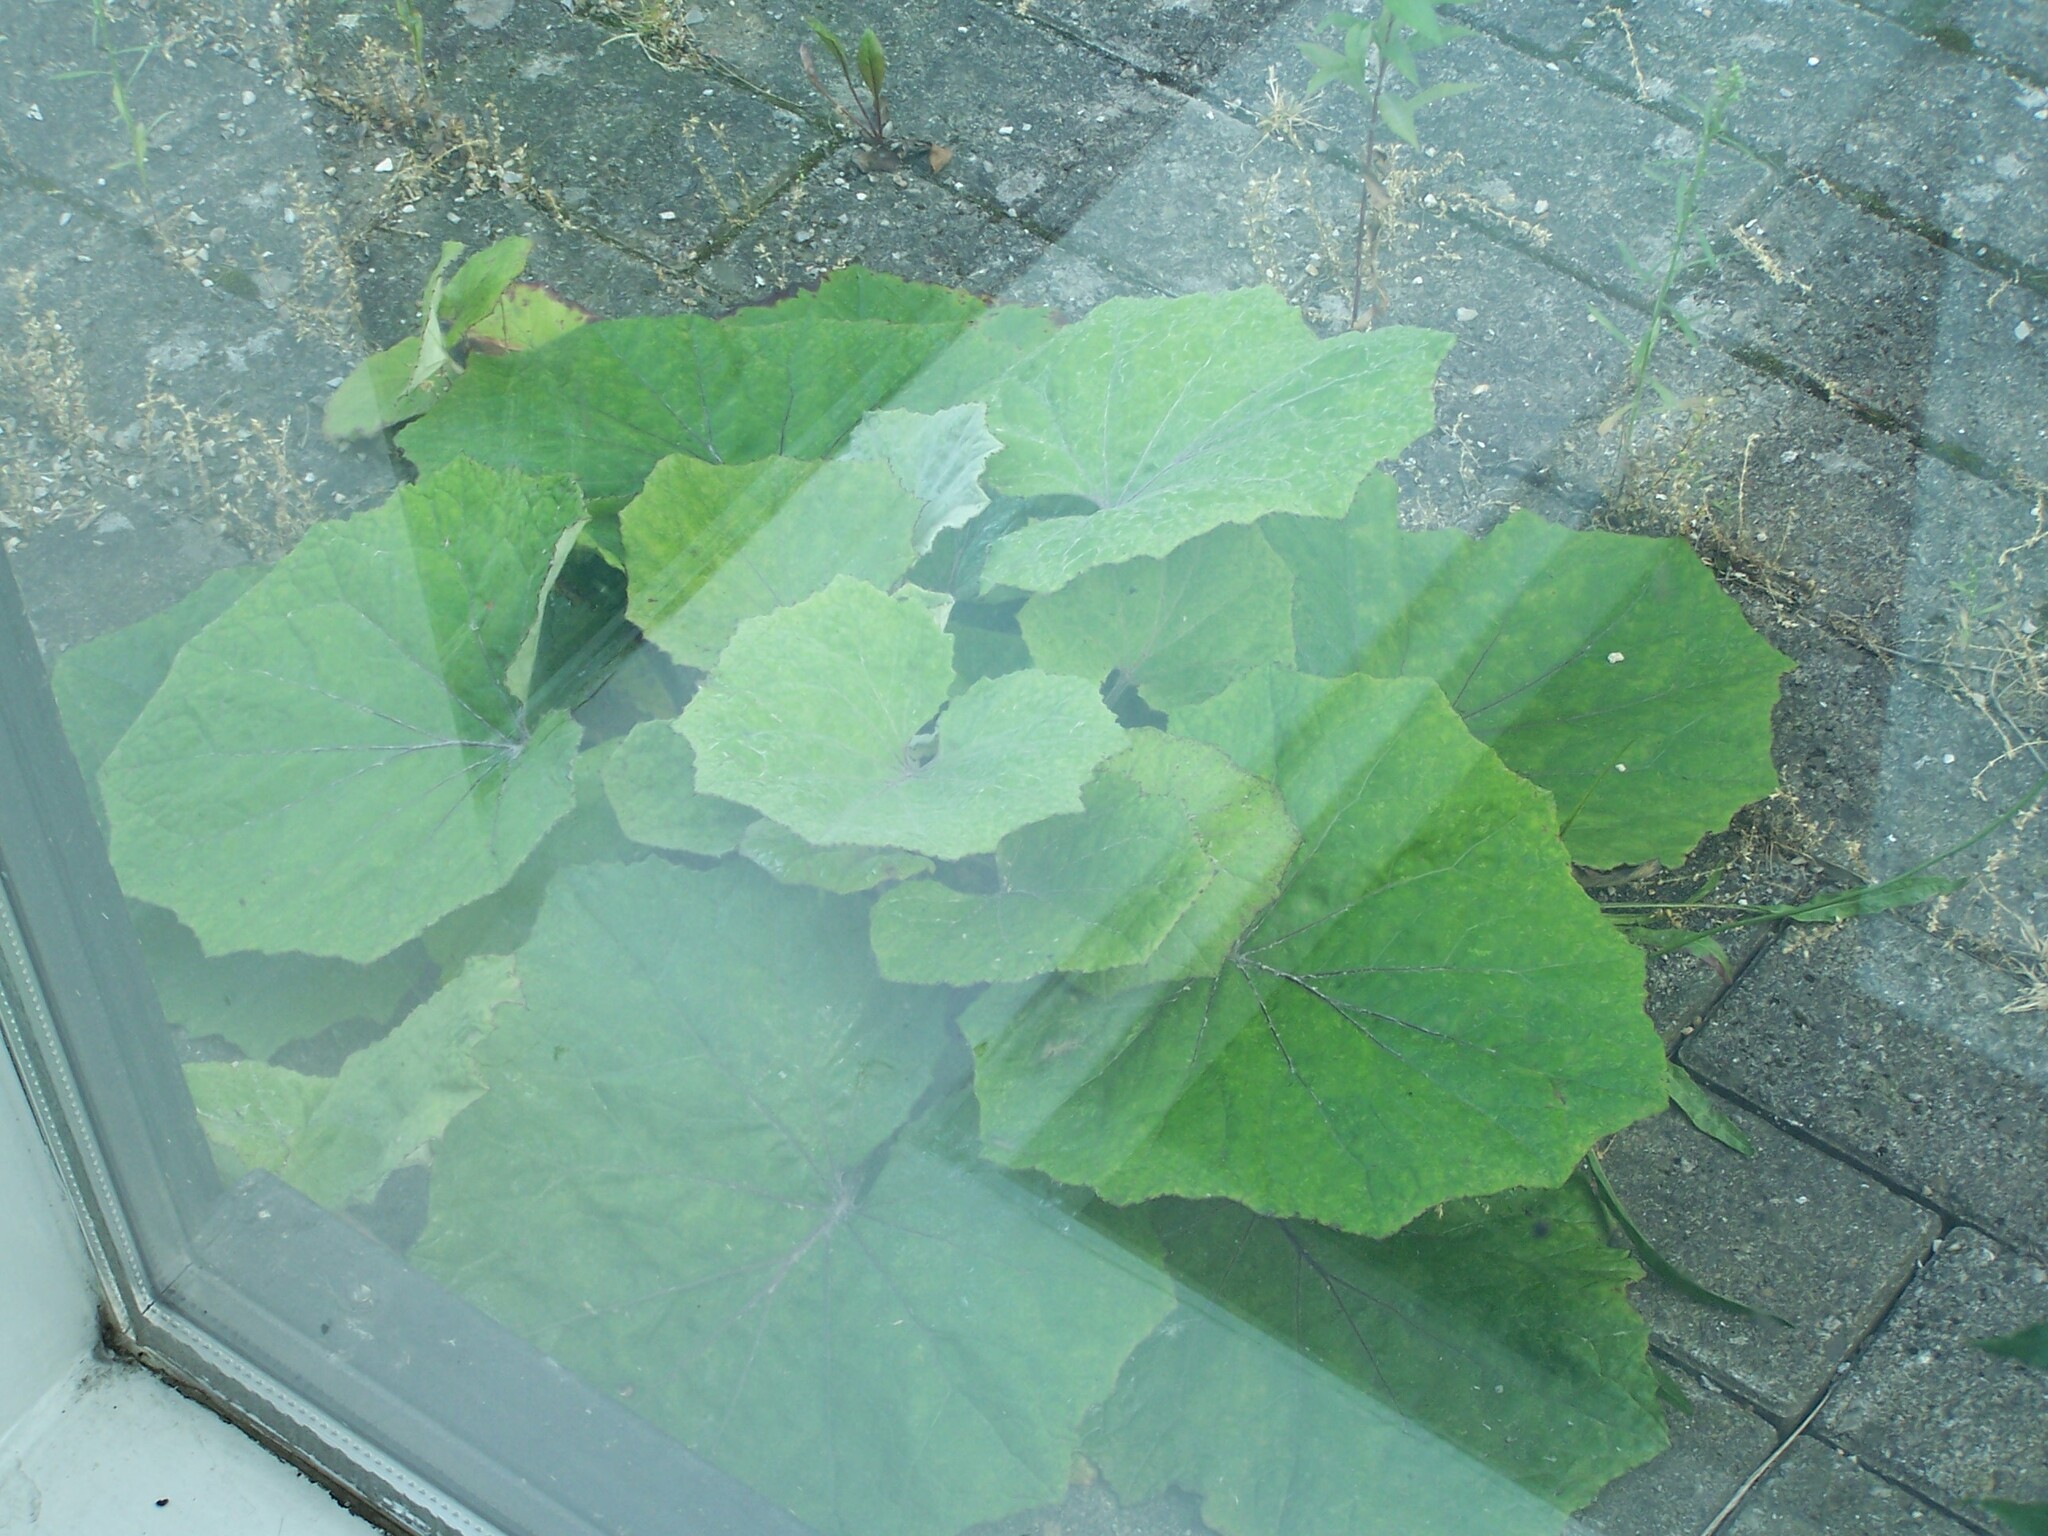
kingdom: Plantae
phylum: Tracheophyta
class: Magnoliopsida
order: Asterales
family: Asteraceae
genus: Tussilago
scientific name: Tussilago farfara
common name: Coltsfoot
